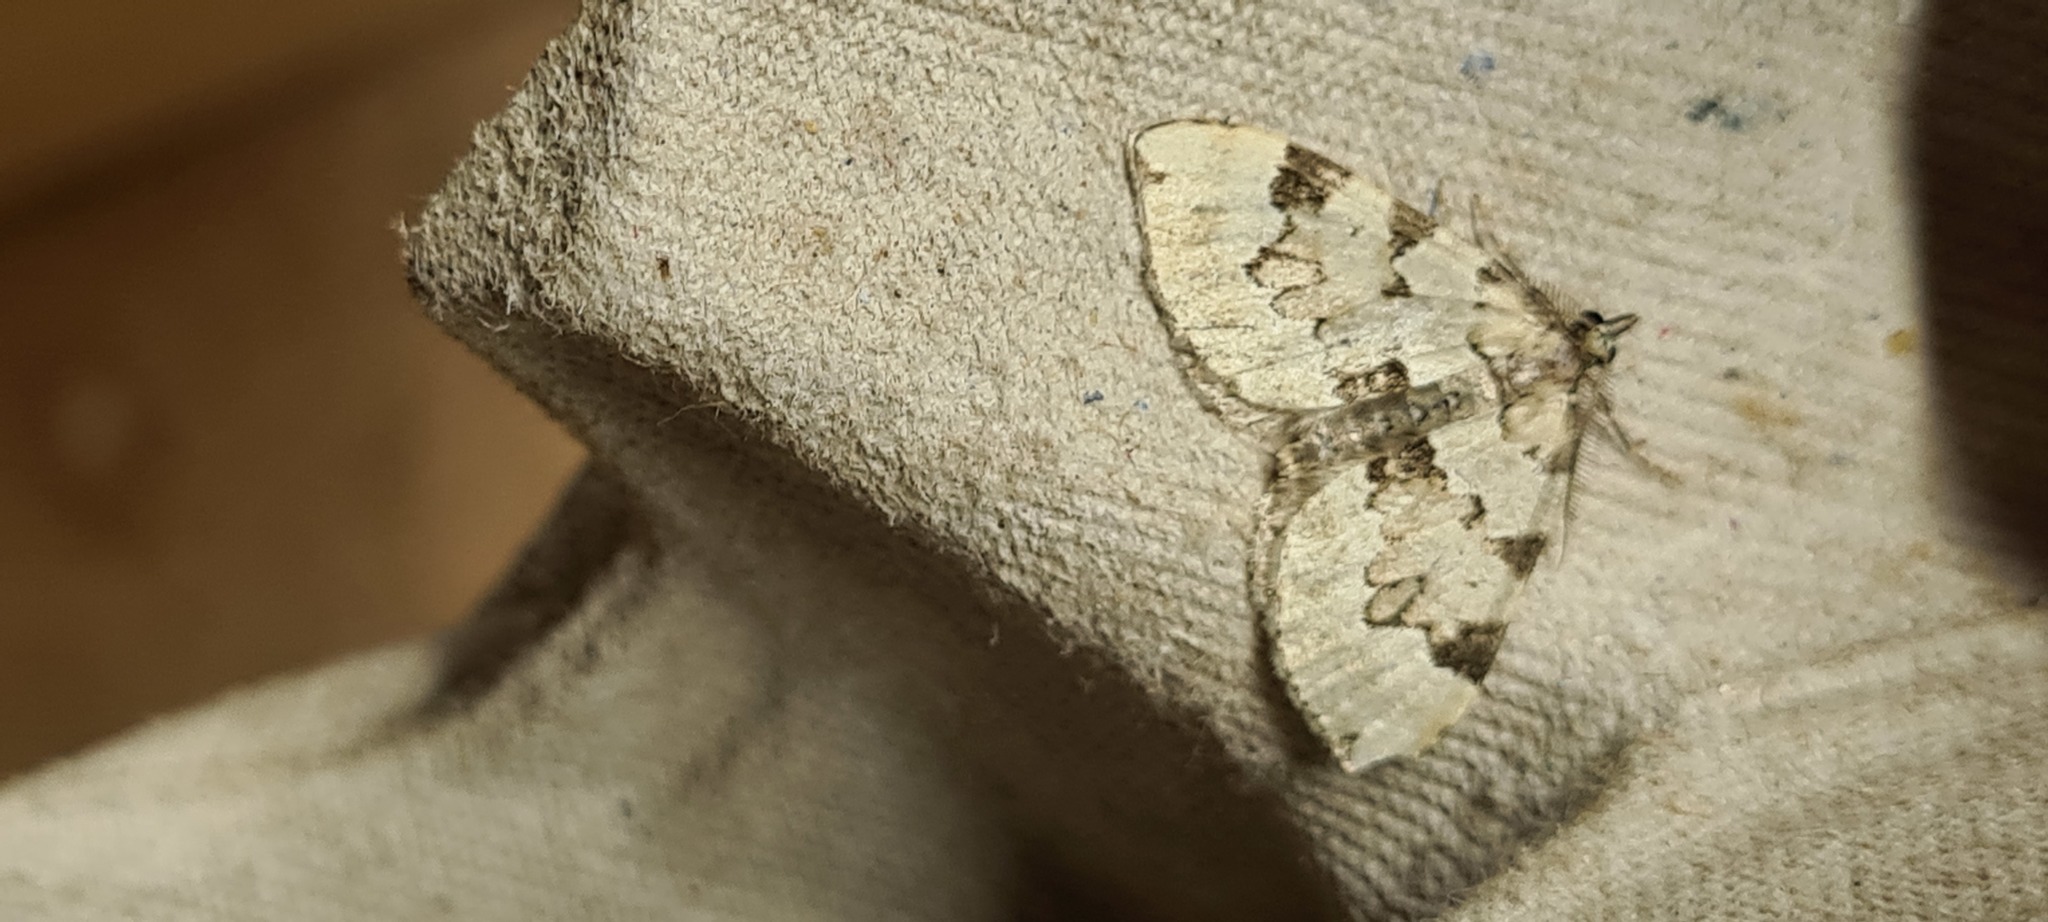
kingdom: Animalia
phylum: Arthropoda
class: Insecta
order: Lepidoptera
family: Geometridae
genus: Colostygia
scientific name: Colostygia pectinataria
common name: Green carpet
